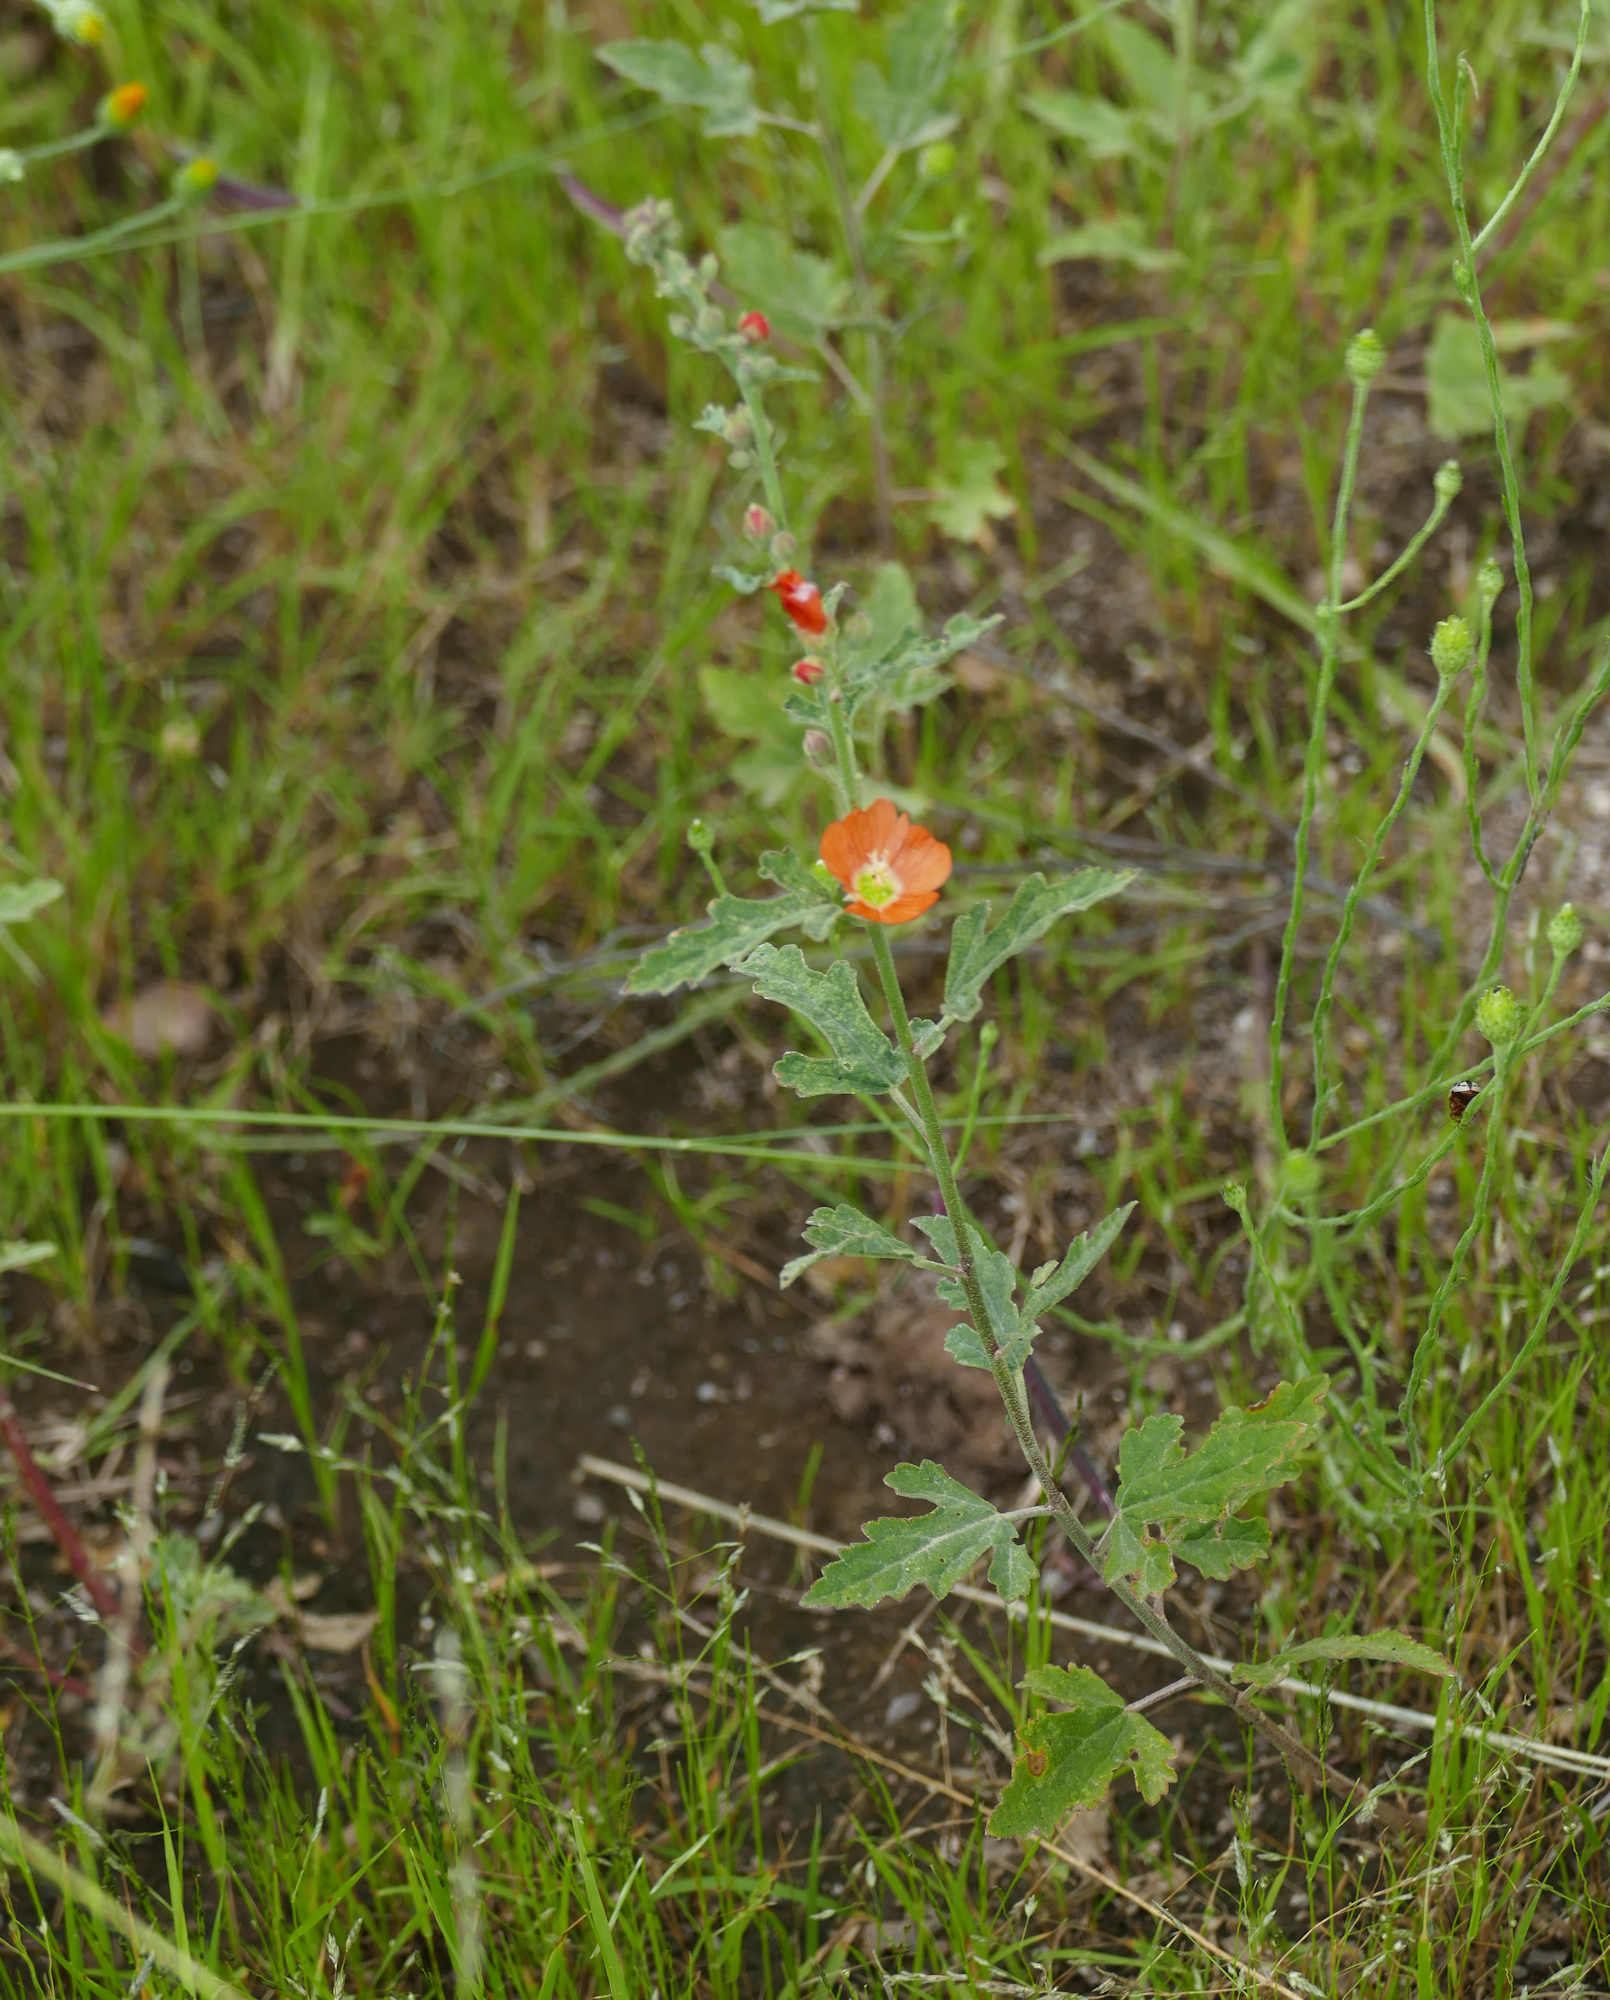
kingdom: Plantae
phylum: Tracheophyta
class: Magnoliopsida
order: Malvales
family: Malvaceae
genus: Sphaeralcea
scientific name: Sphaeralcea fendleri
